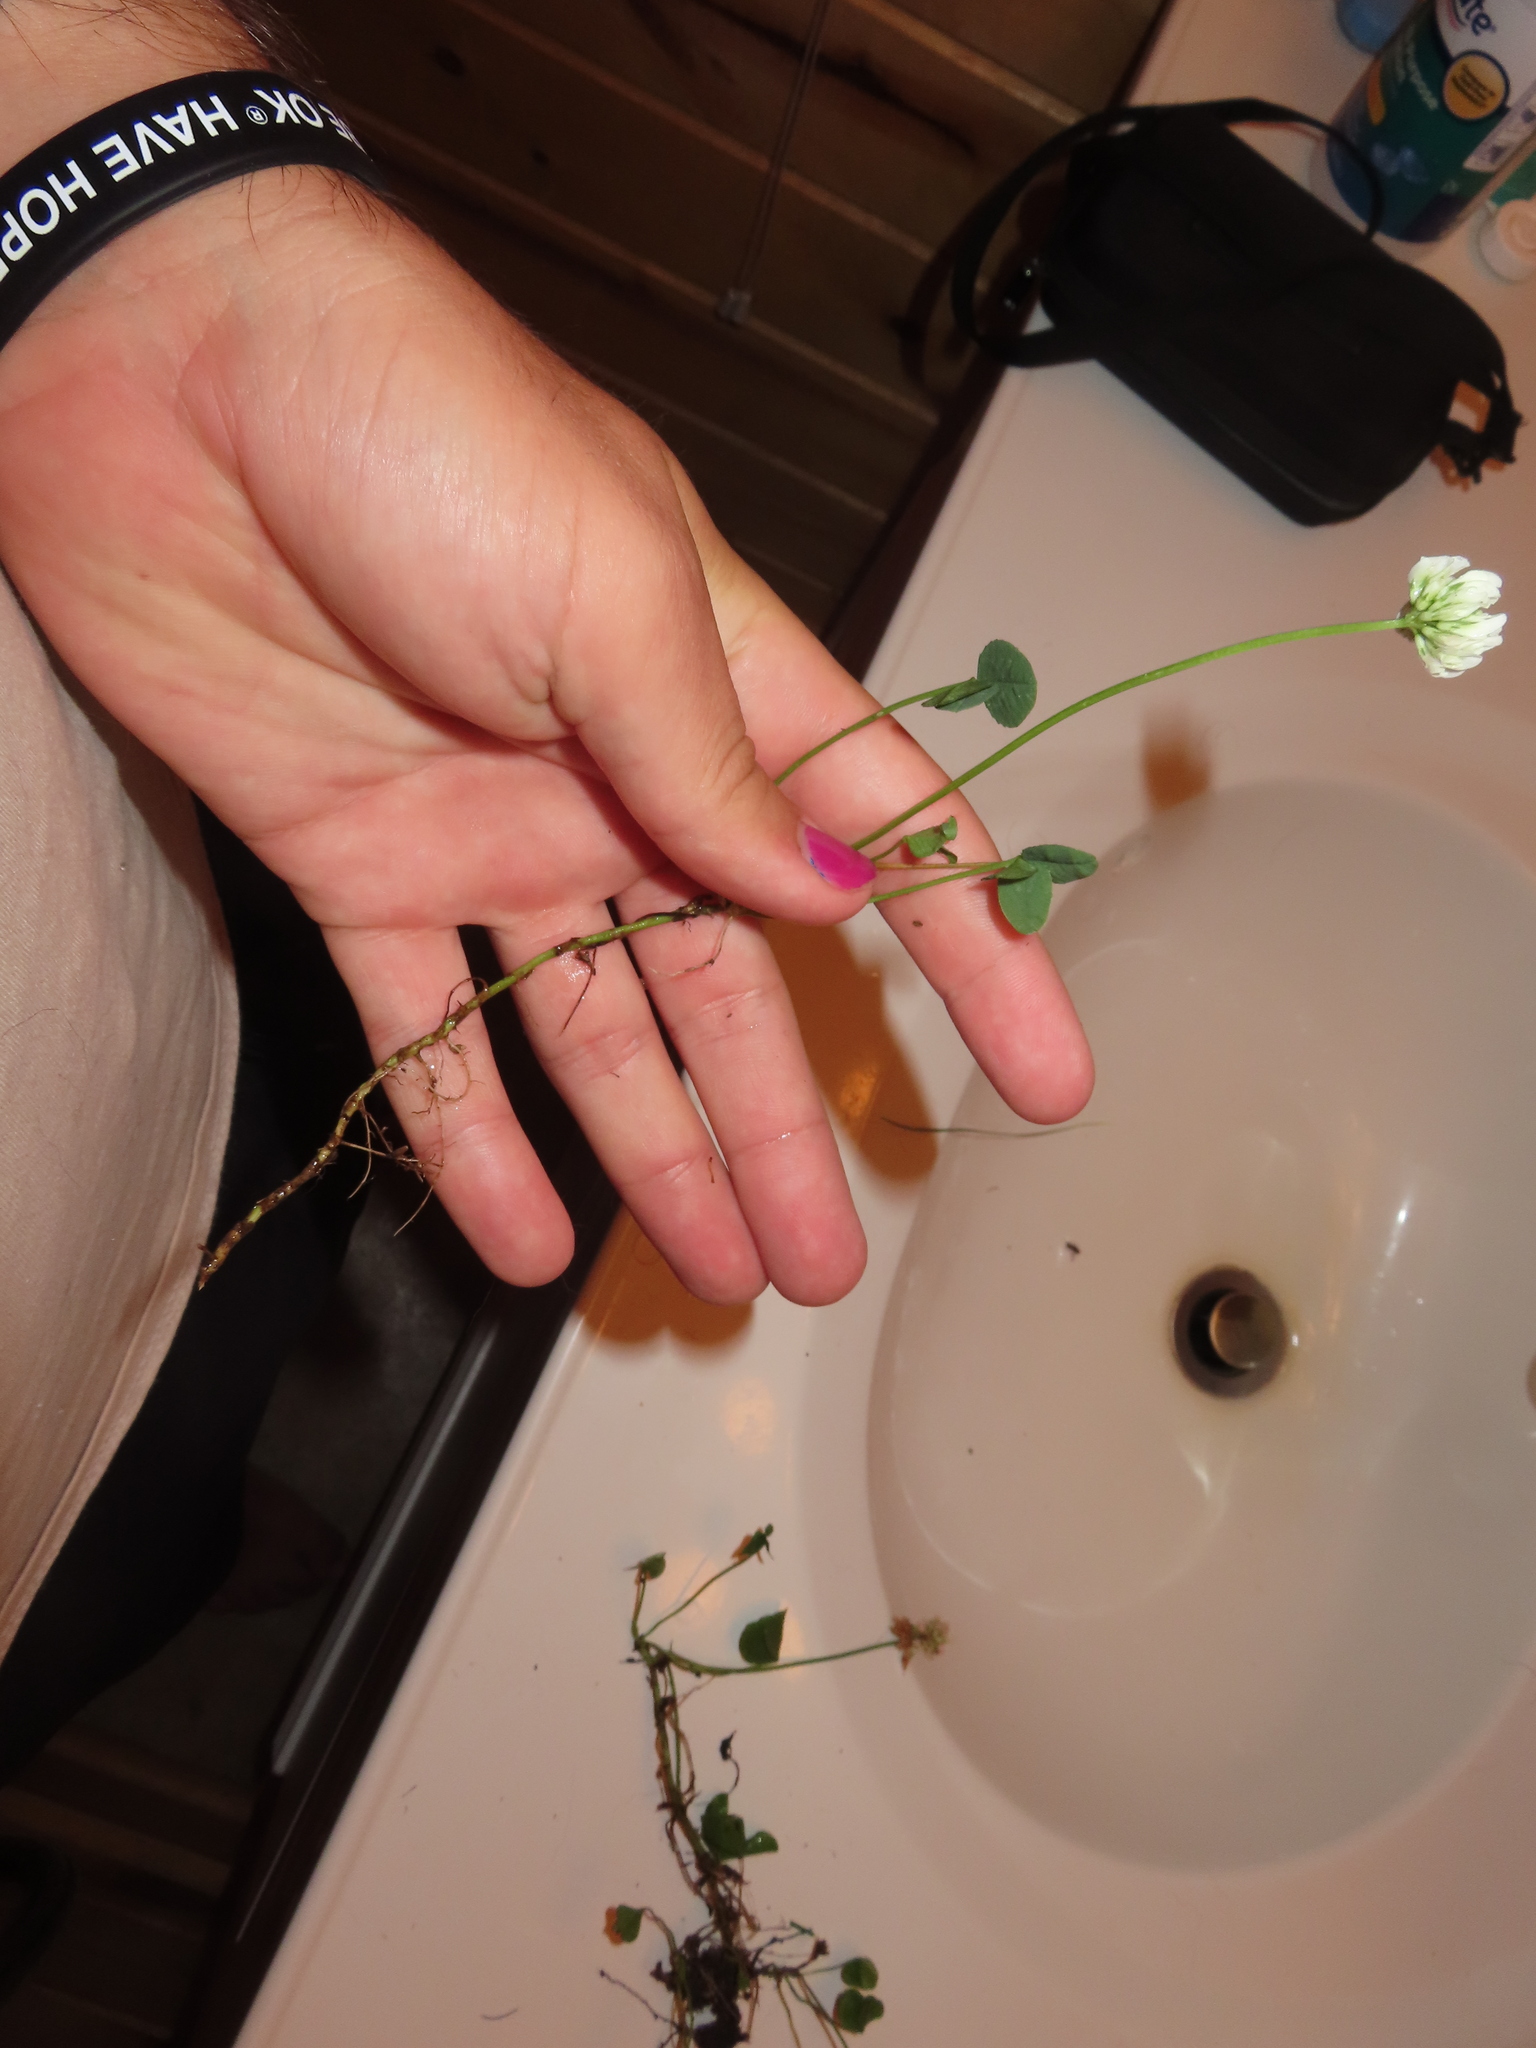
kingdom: Plantae
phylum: Tracheophyta
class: Magnoliopsida
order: Fabales
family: Fabaceae
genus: Trifolium
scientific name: Trifolium repens
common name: White clover
